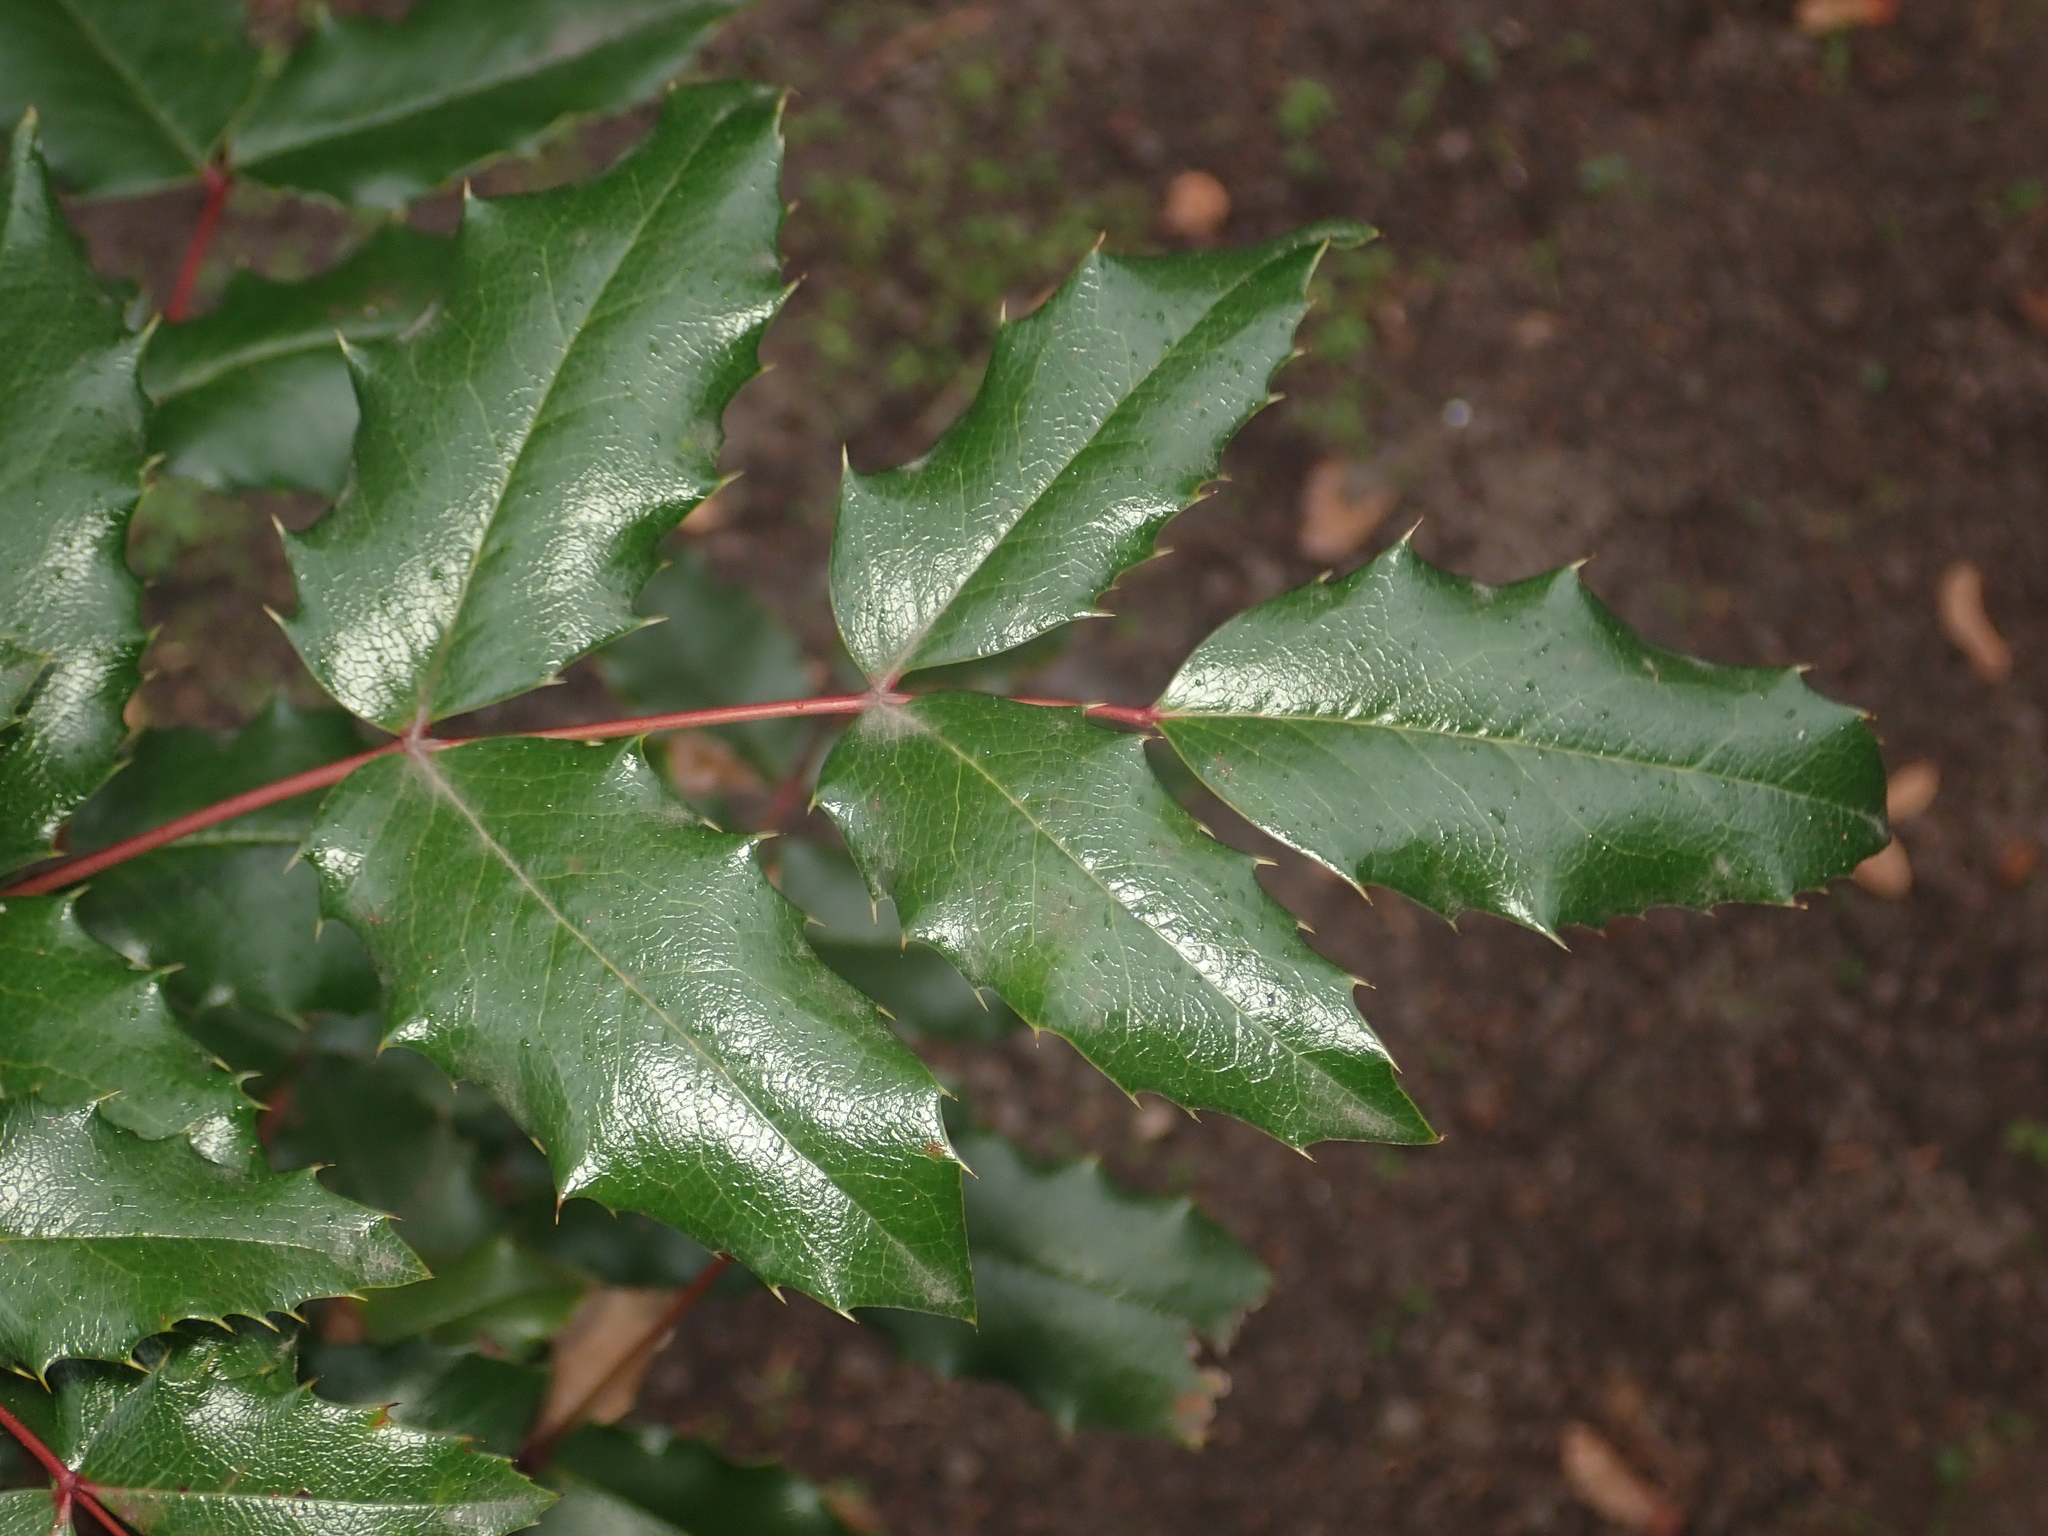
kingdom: Plantae
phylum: Tracheophyta
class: Magnoliopsida
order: Ranunculales
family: Berberidaceae
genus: Mahonia
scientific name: Mahonia aquifolium
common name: Oregon-grape
